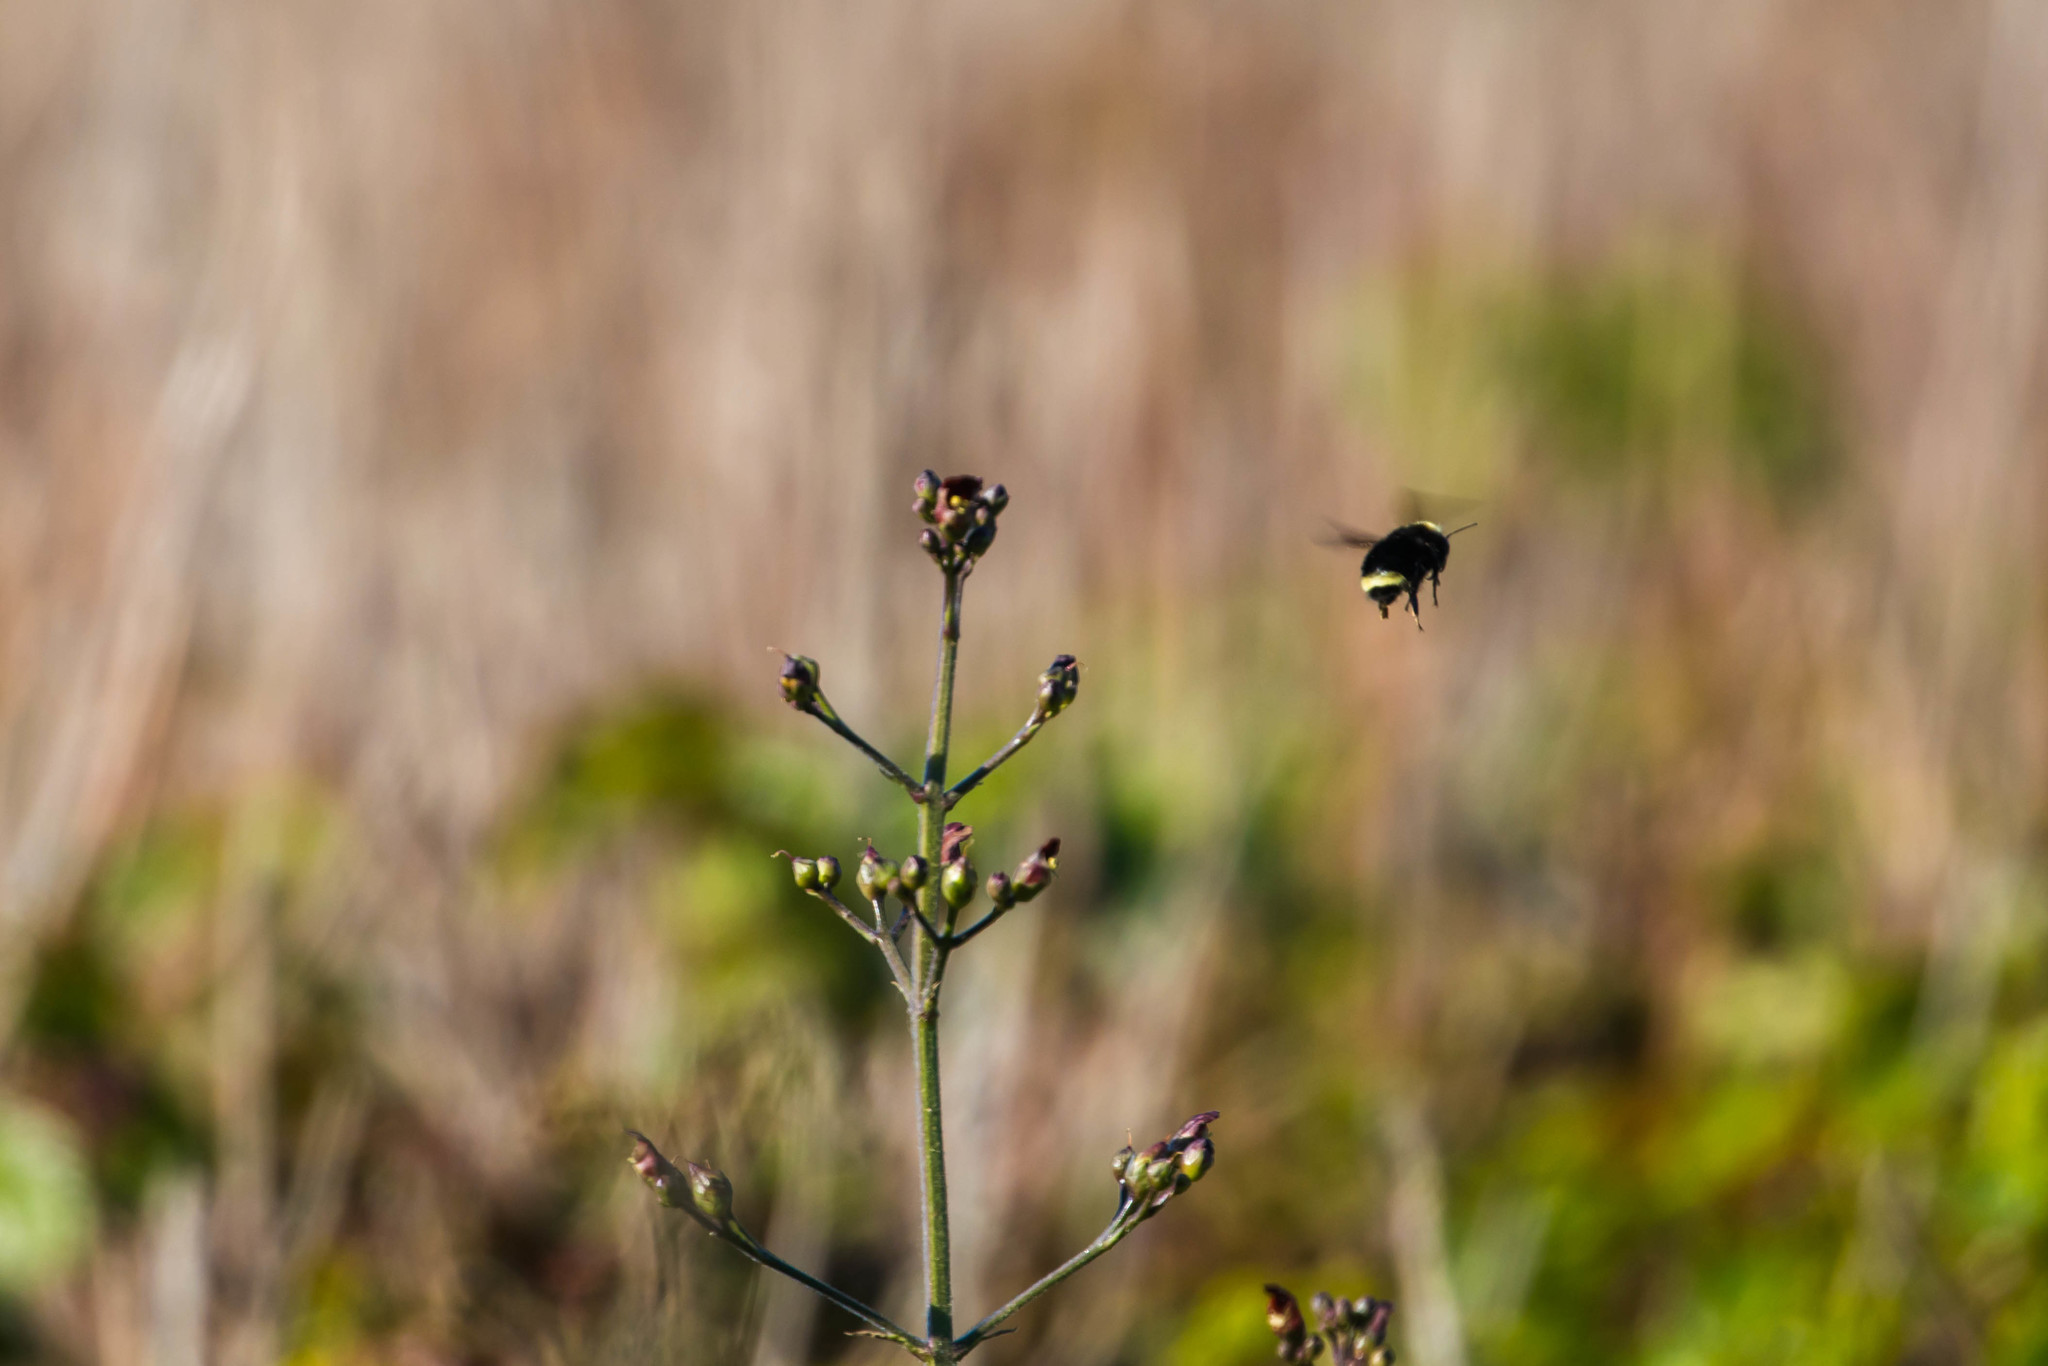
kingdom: Animalia
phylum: Arthropoda
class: Insecta
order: Hymenoptera
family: Apidae
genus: Bombus
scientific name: Bombus vosnesenskii
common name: Vosnesensky bumble bee
